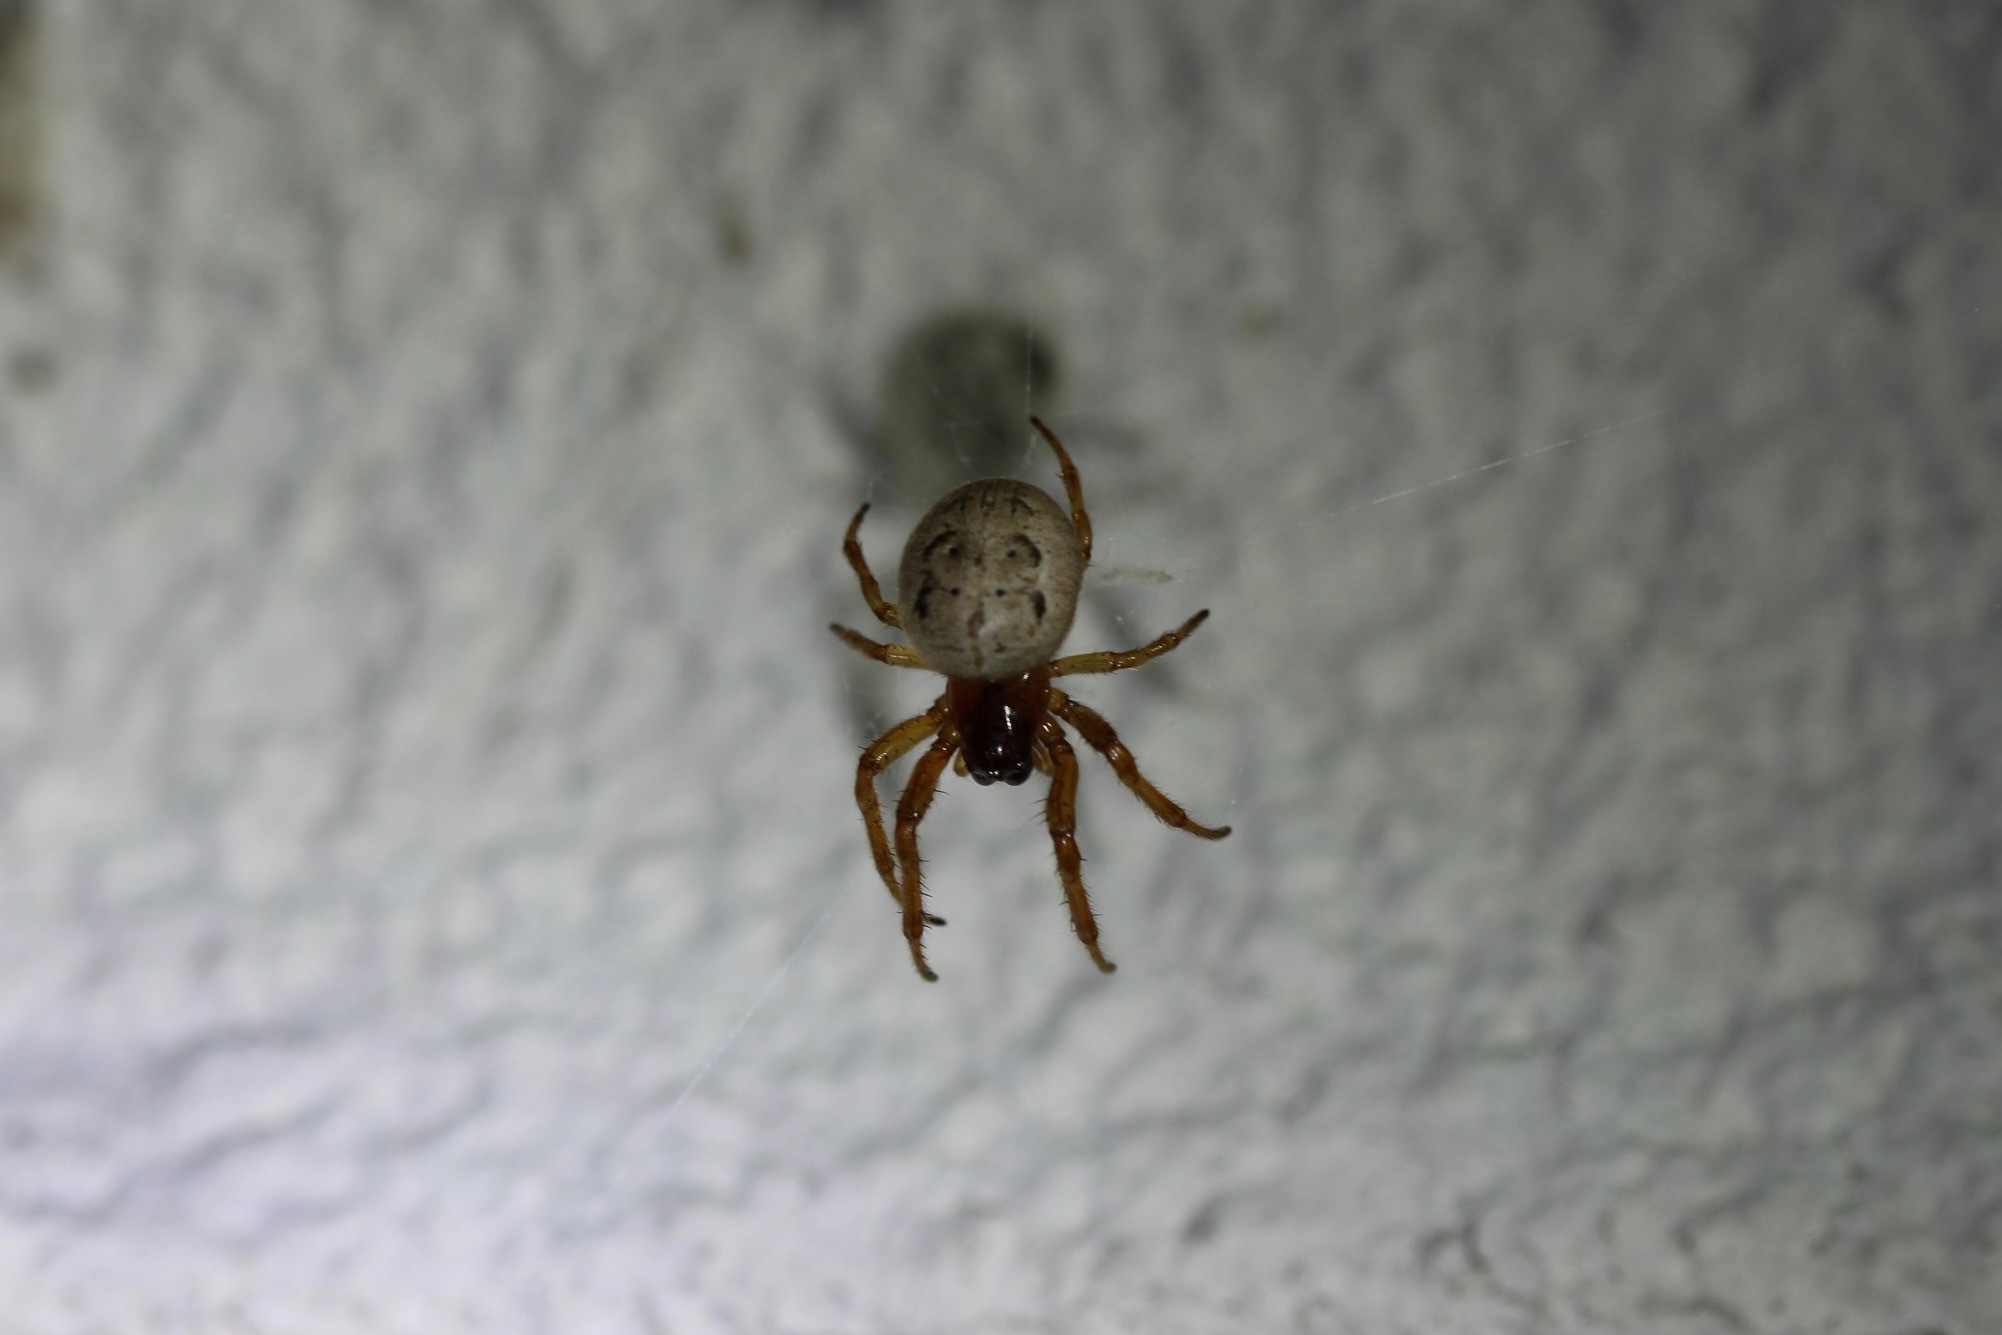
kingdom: Animalia
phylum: Arthropoda
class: Arachnida
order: Araneae
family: Araneidae
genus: Metazygia
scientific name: Metazygia wittfeldae
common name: Orb weavers
